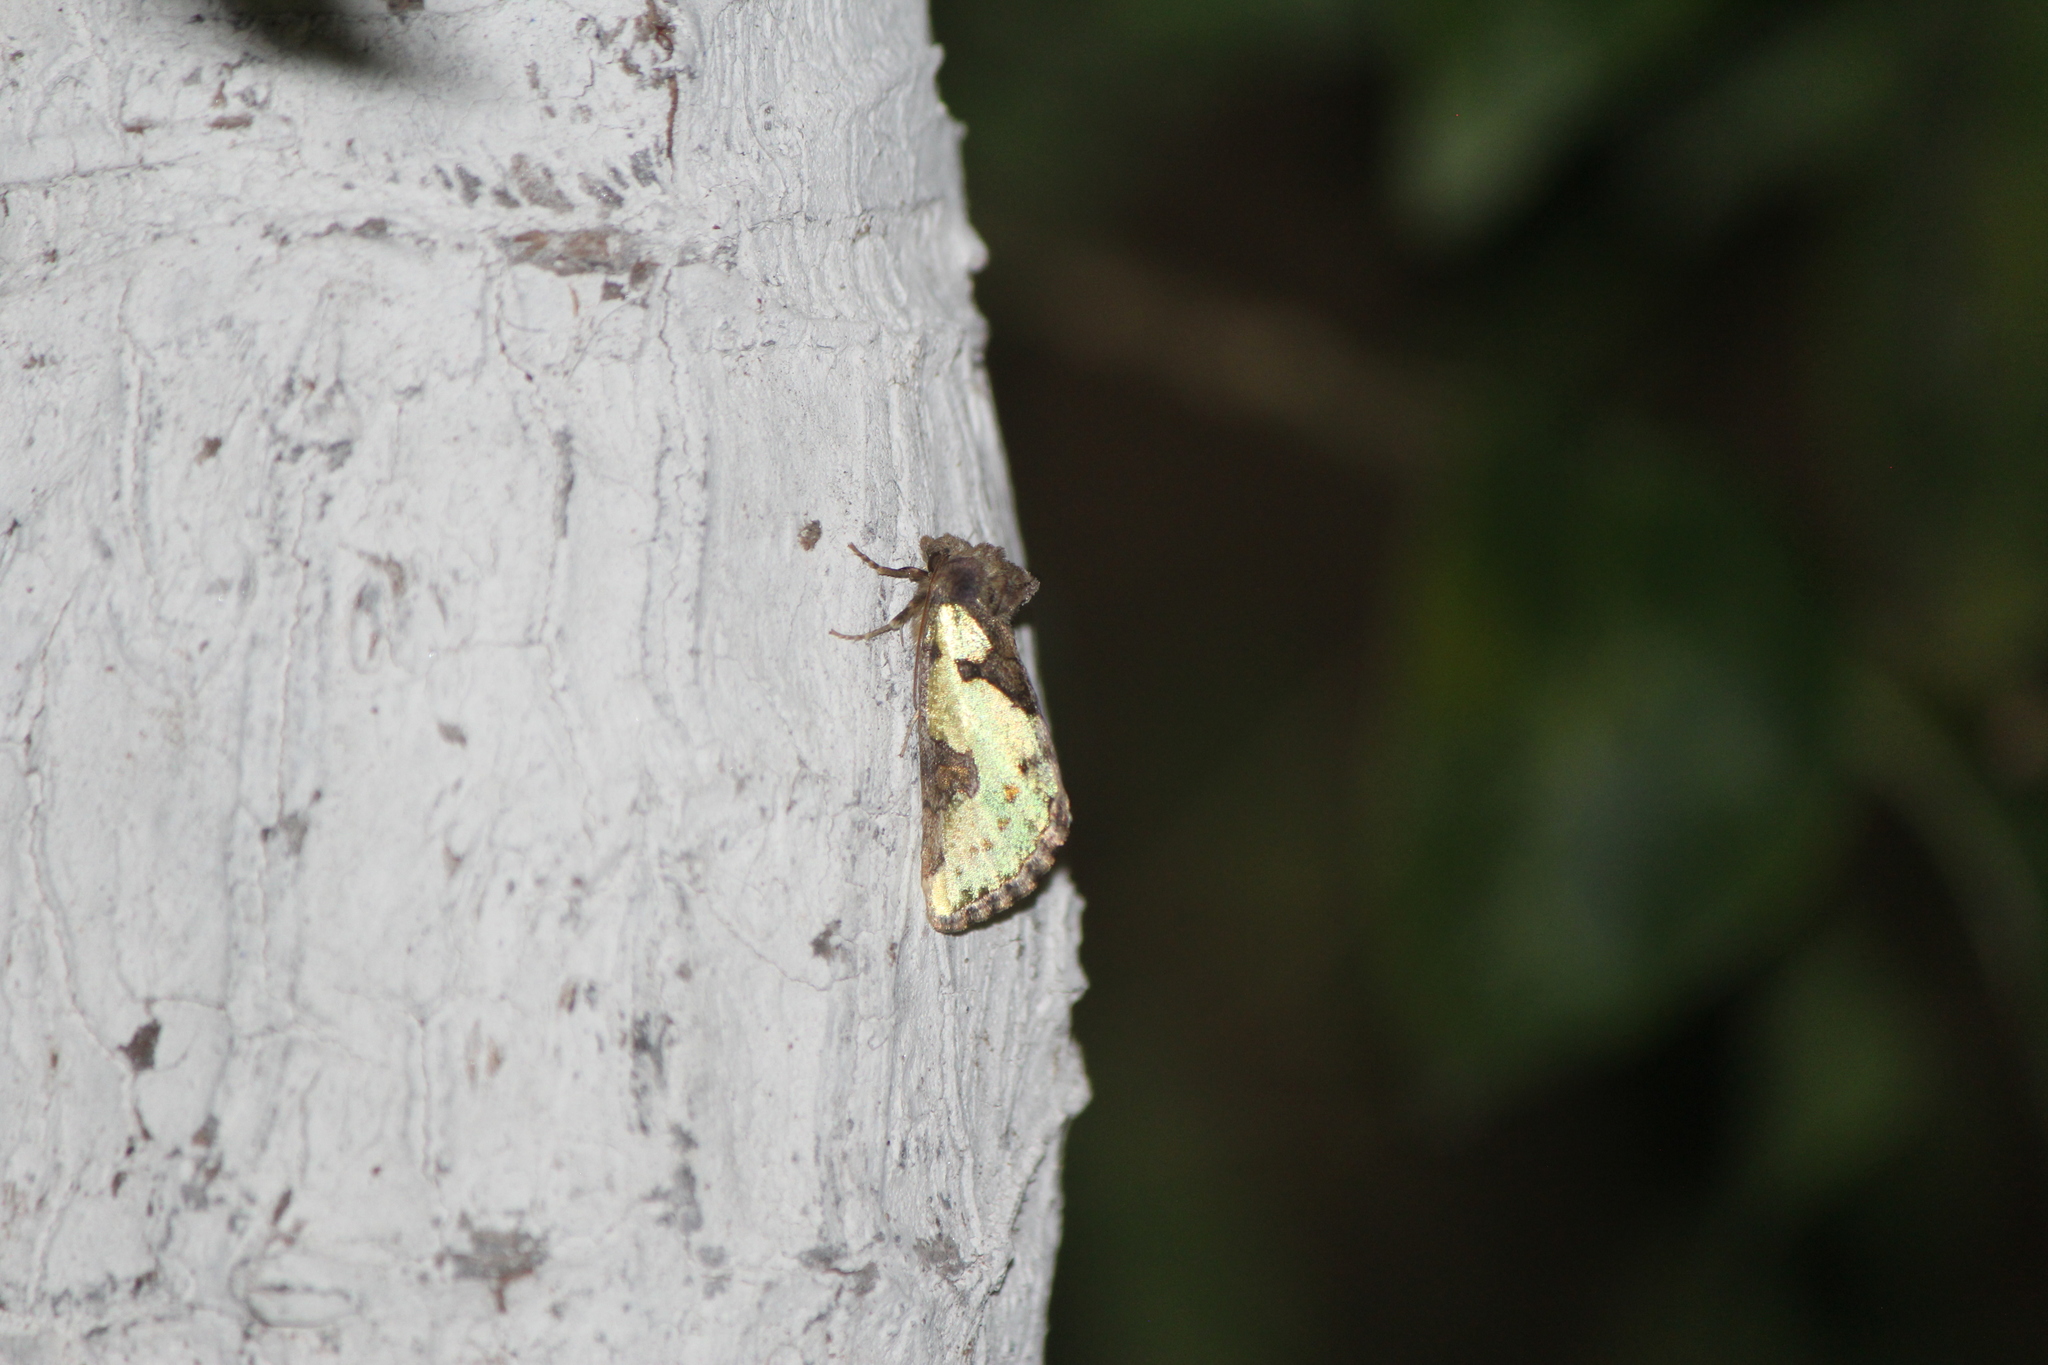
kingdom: Animalia
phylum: Arthropoda
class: Insecta
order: Lepidoptera
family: Noctuidae
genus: Chalcopasta
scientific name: Chalcopasta pterochalcea
